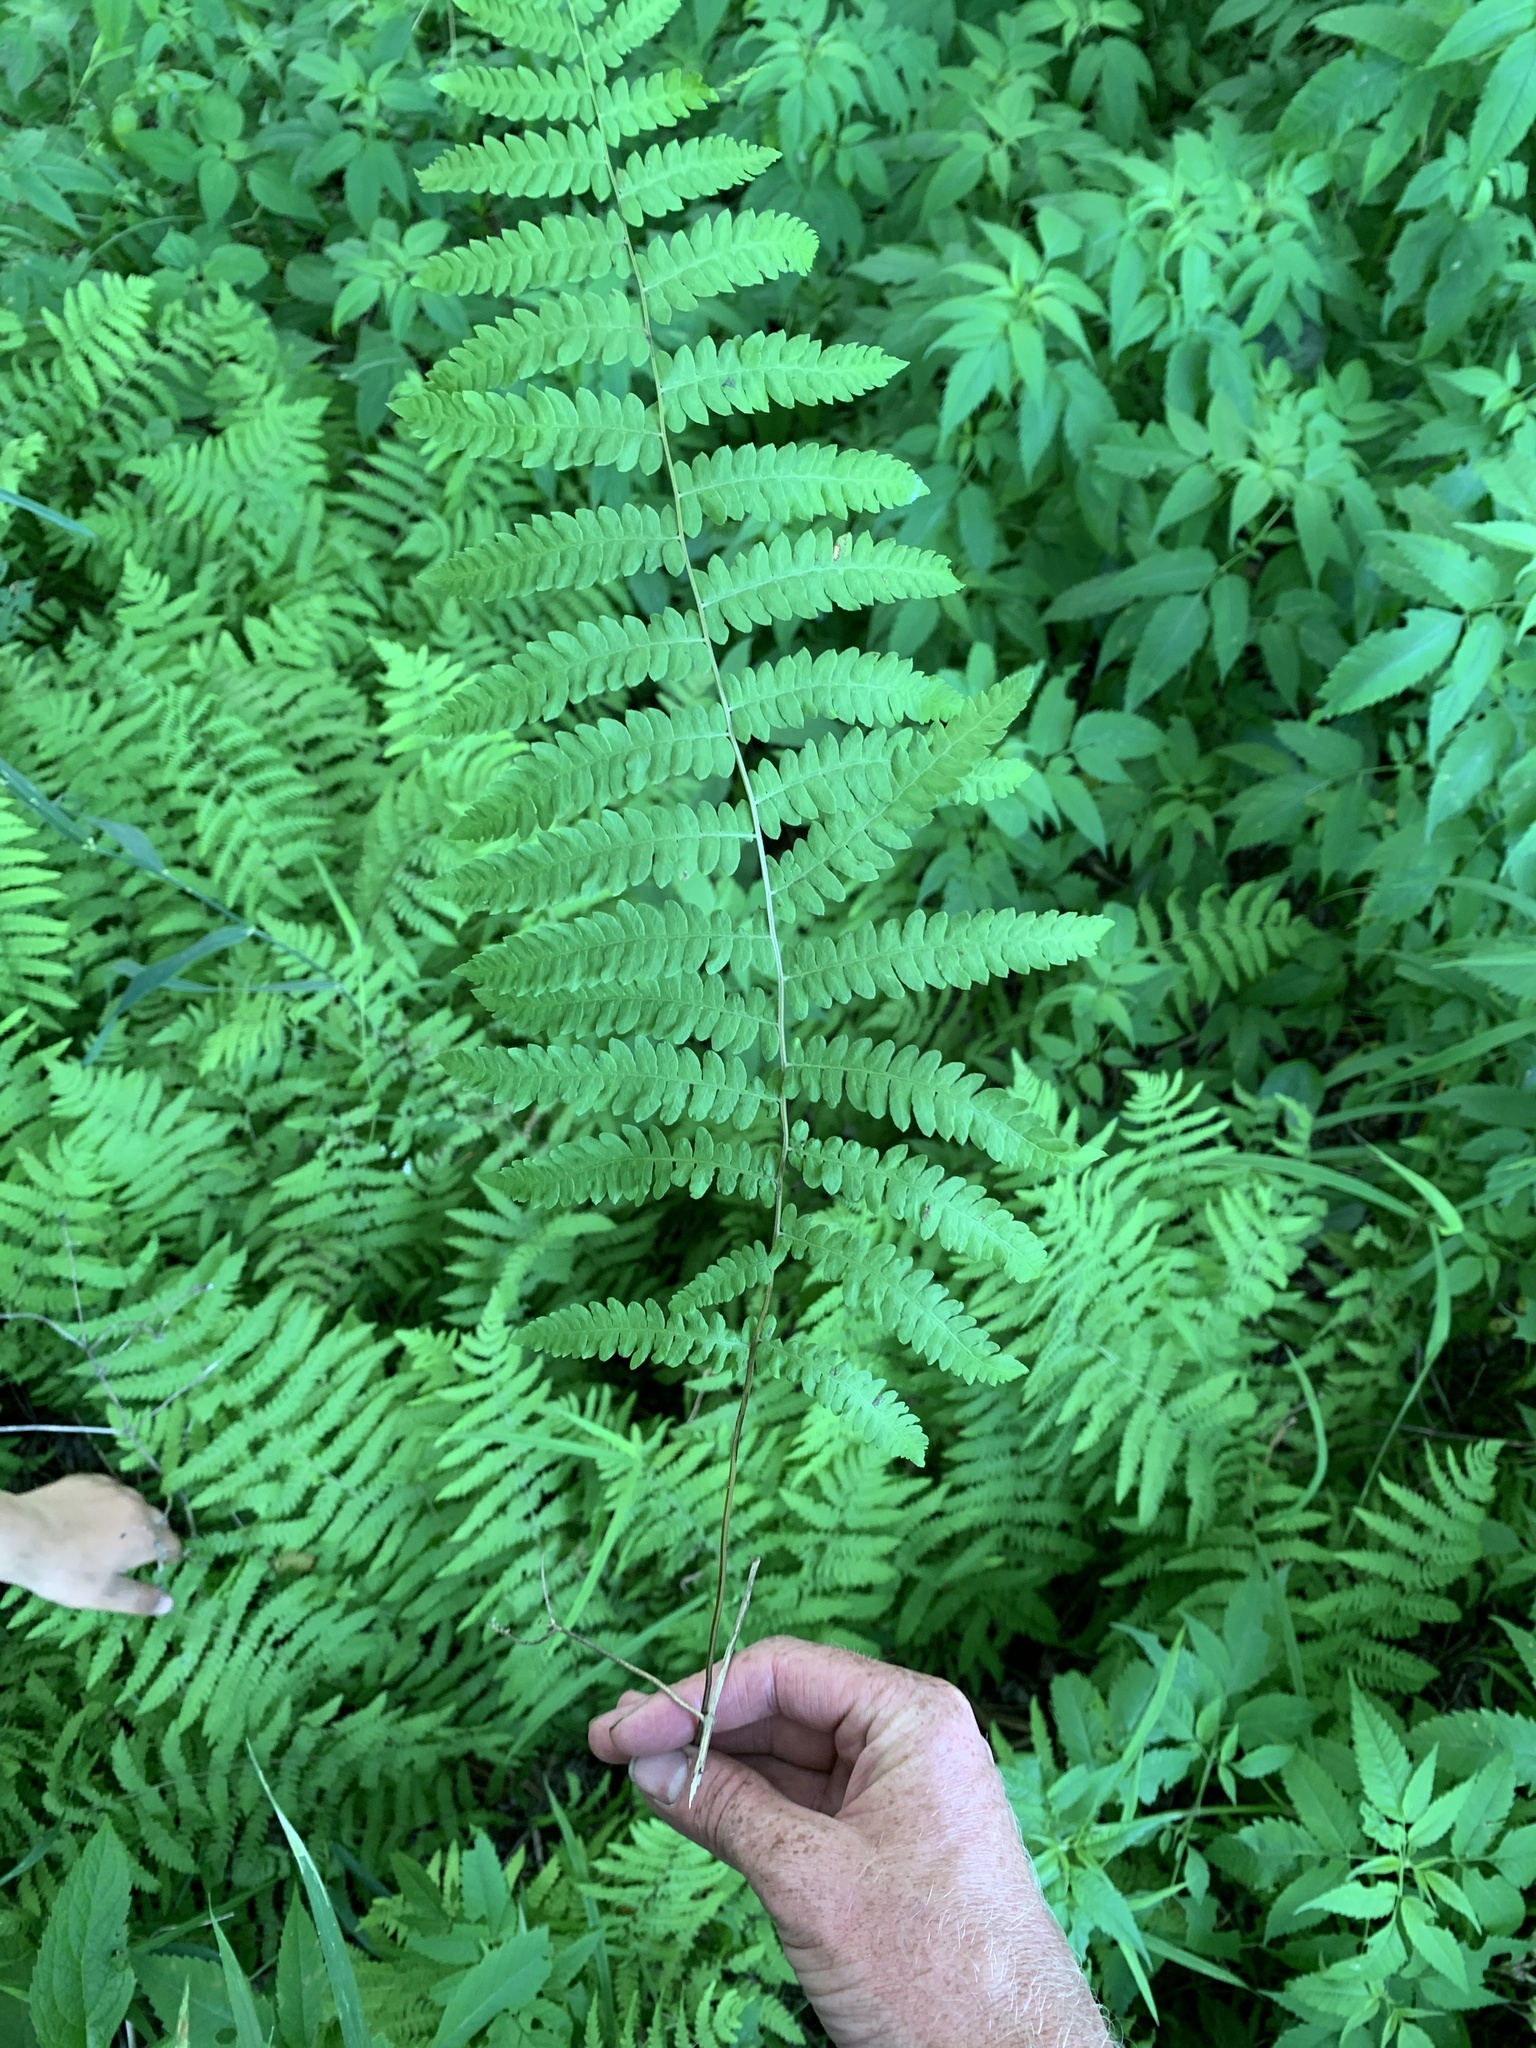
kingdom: Plantae
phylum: Tracheophyta
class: Polypodiopsida
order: Polypodiales
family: Thelypteridaceae
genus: Thelypteris
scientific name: Thelypteris palustris
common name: Marsh fern
